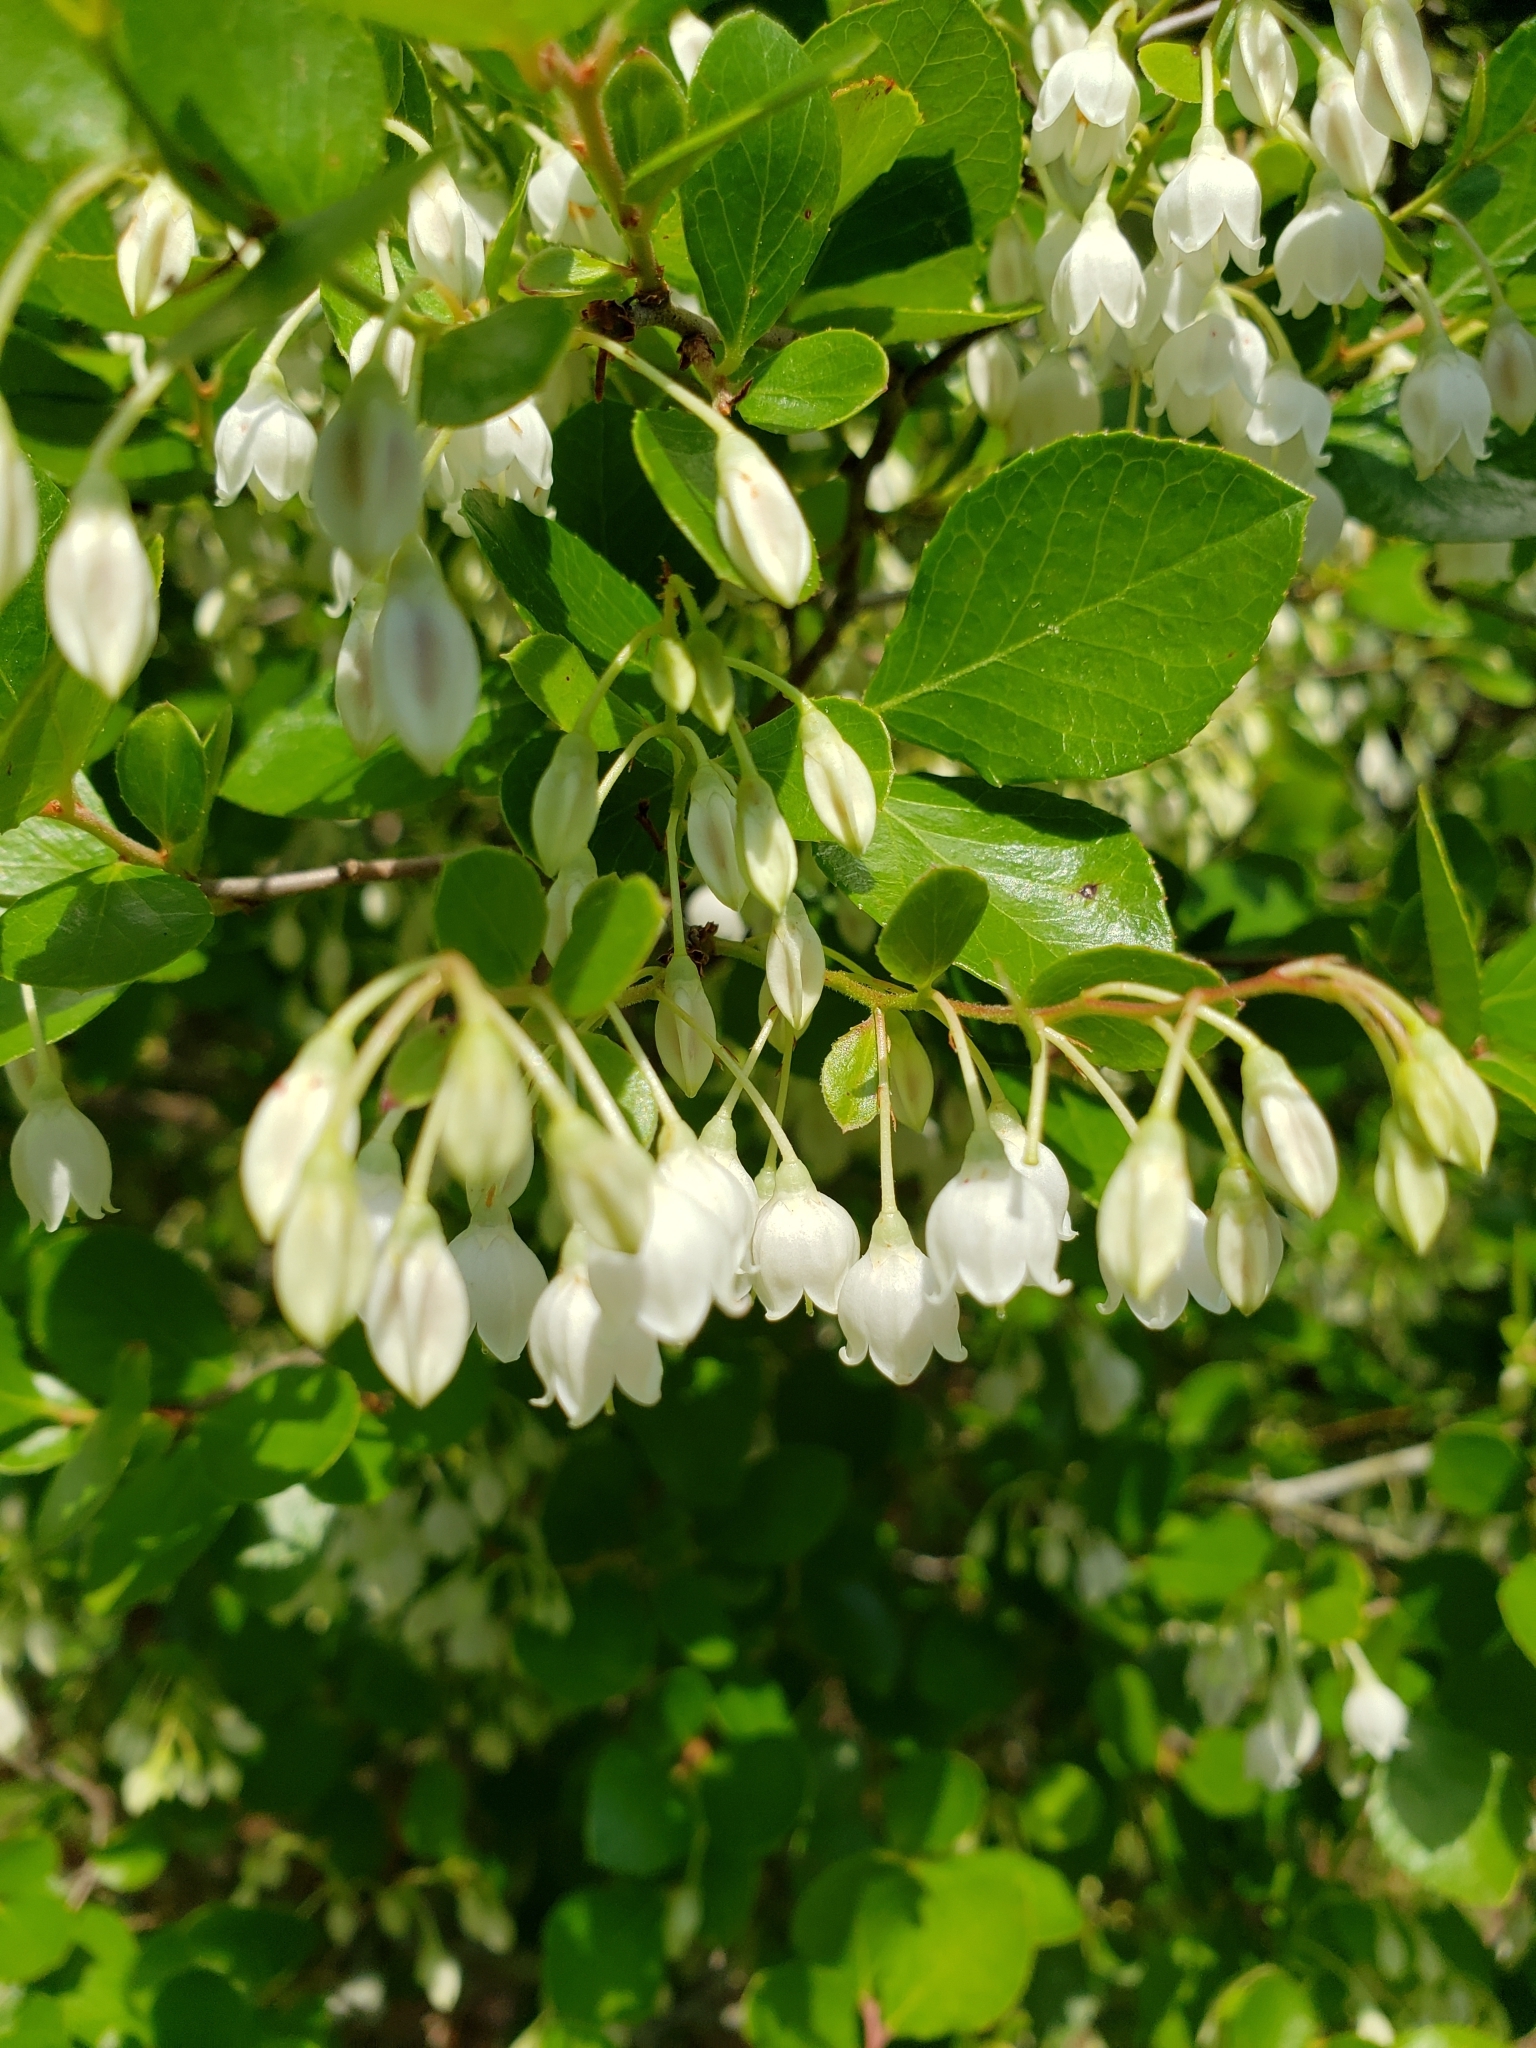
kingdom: Plantae
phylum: Tracheophyta
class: Magnoliopsida
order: Ericales
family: Ericaceae
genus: Vaccinium
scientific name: Vaccinium arboreum
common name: Farkleberry
